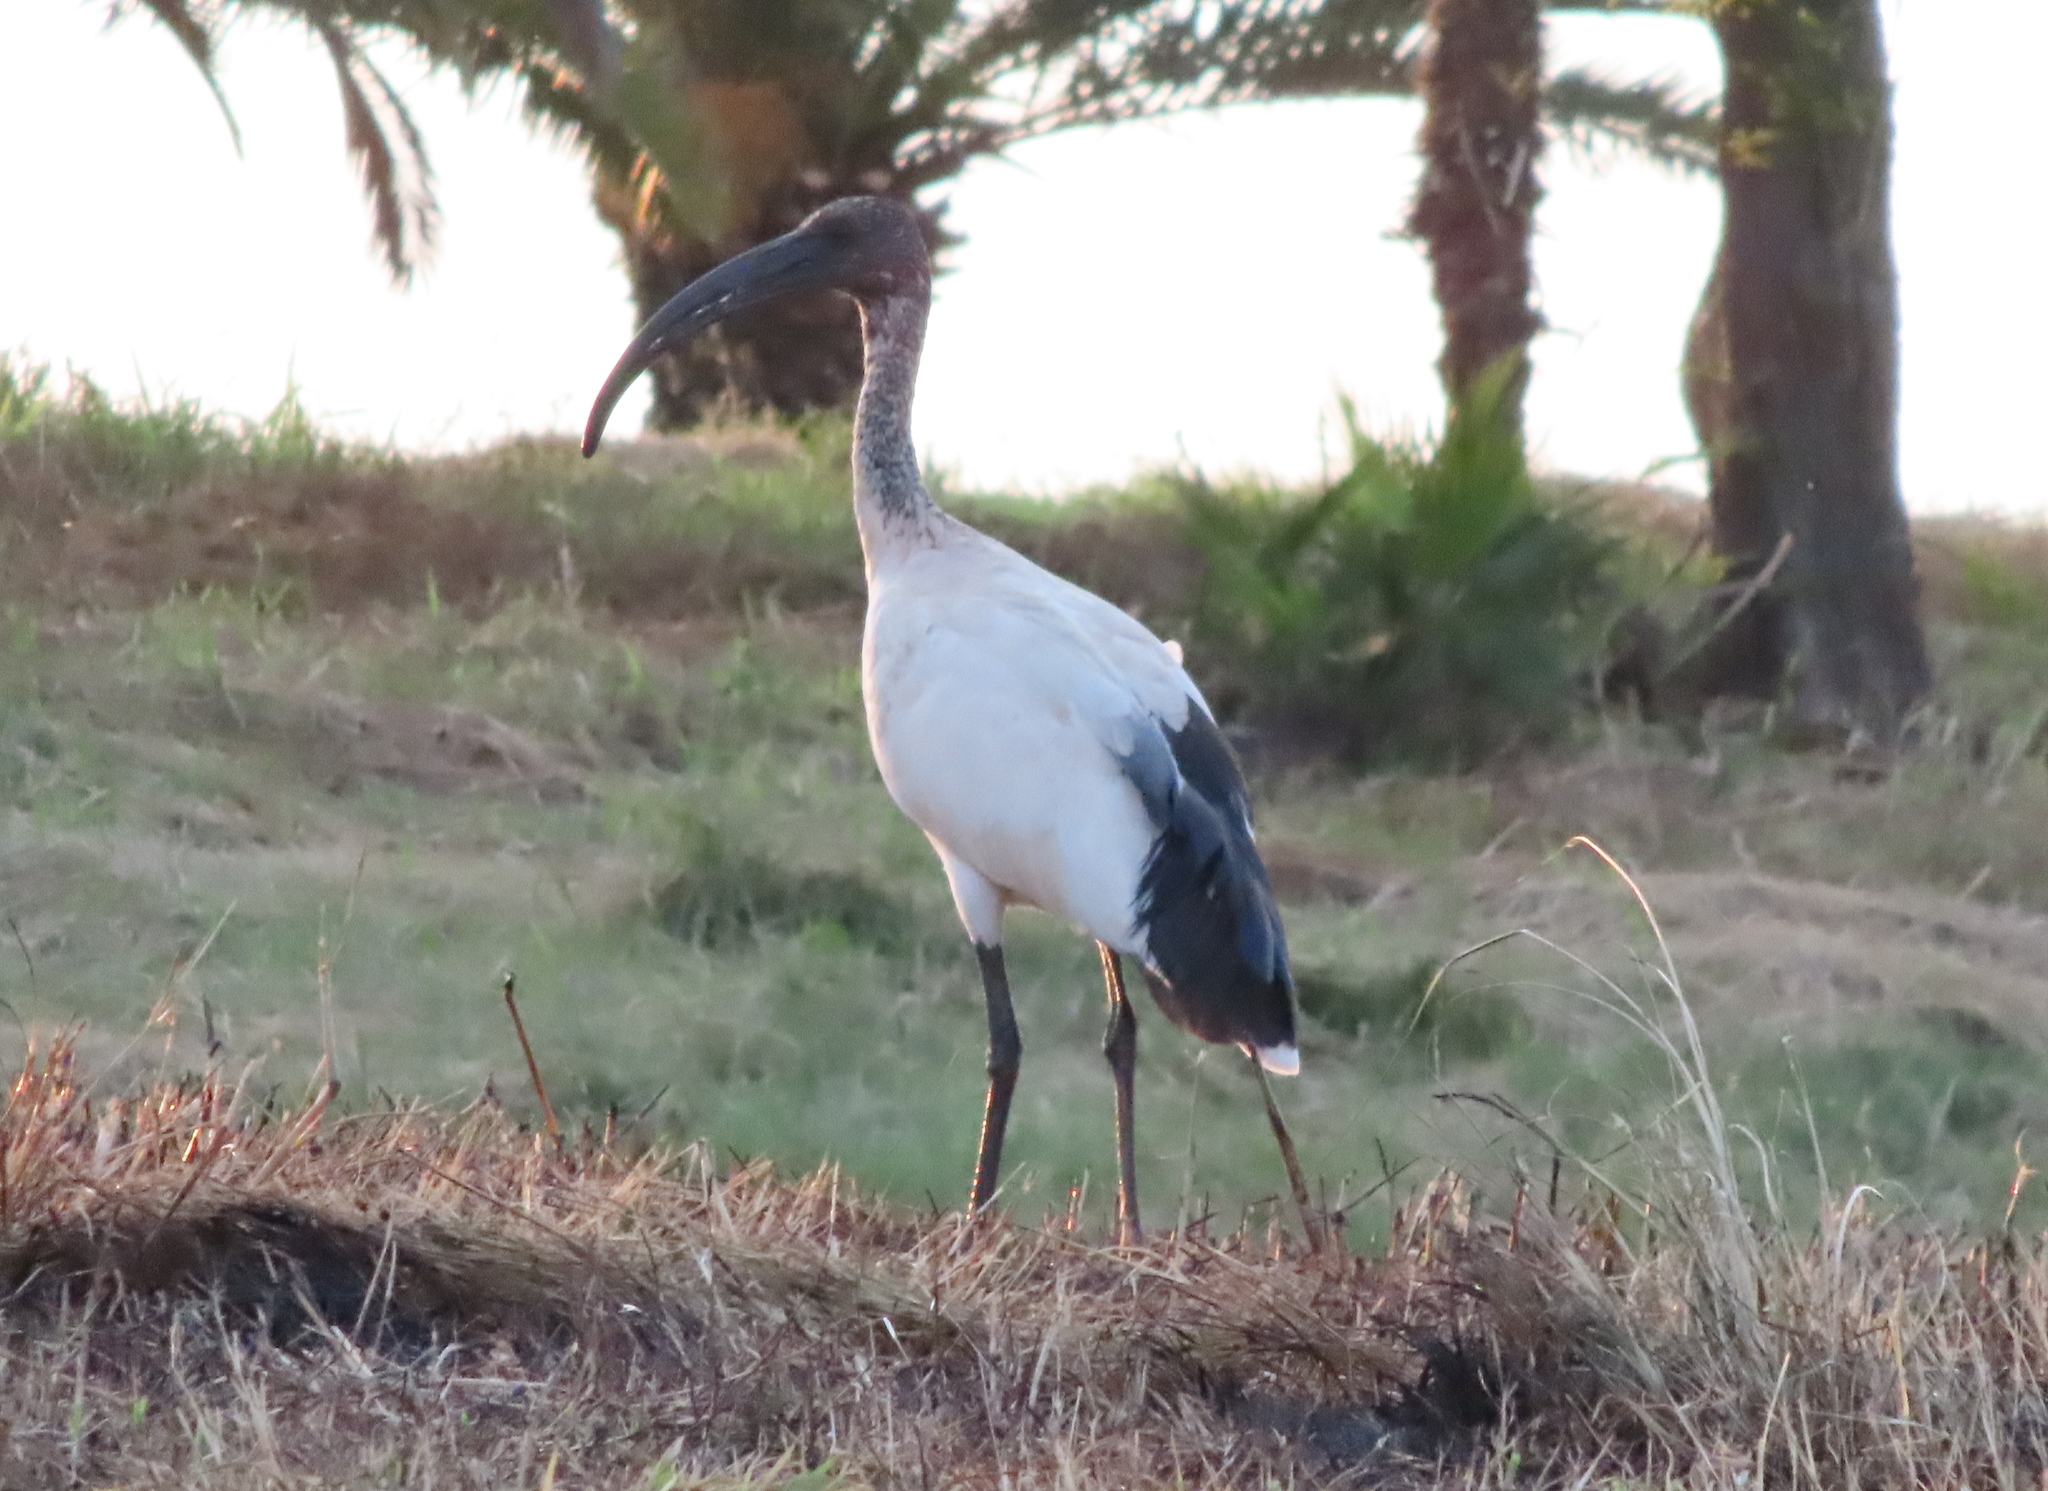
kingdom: Animalia
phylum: Chordata
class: Aves
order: Pelecaniformes
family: Threskiornithidae
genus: Threskiornis
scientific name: Threskiornis aethiopicus
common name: Sacred ibis
